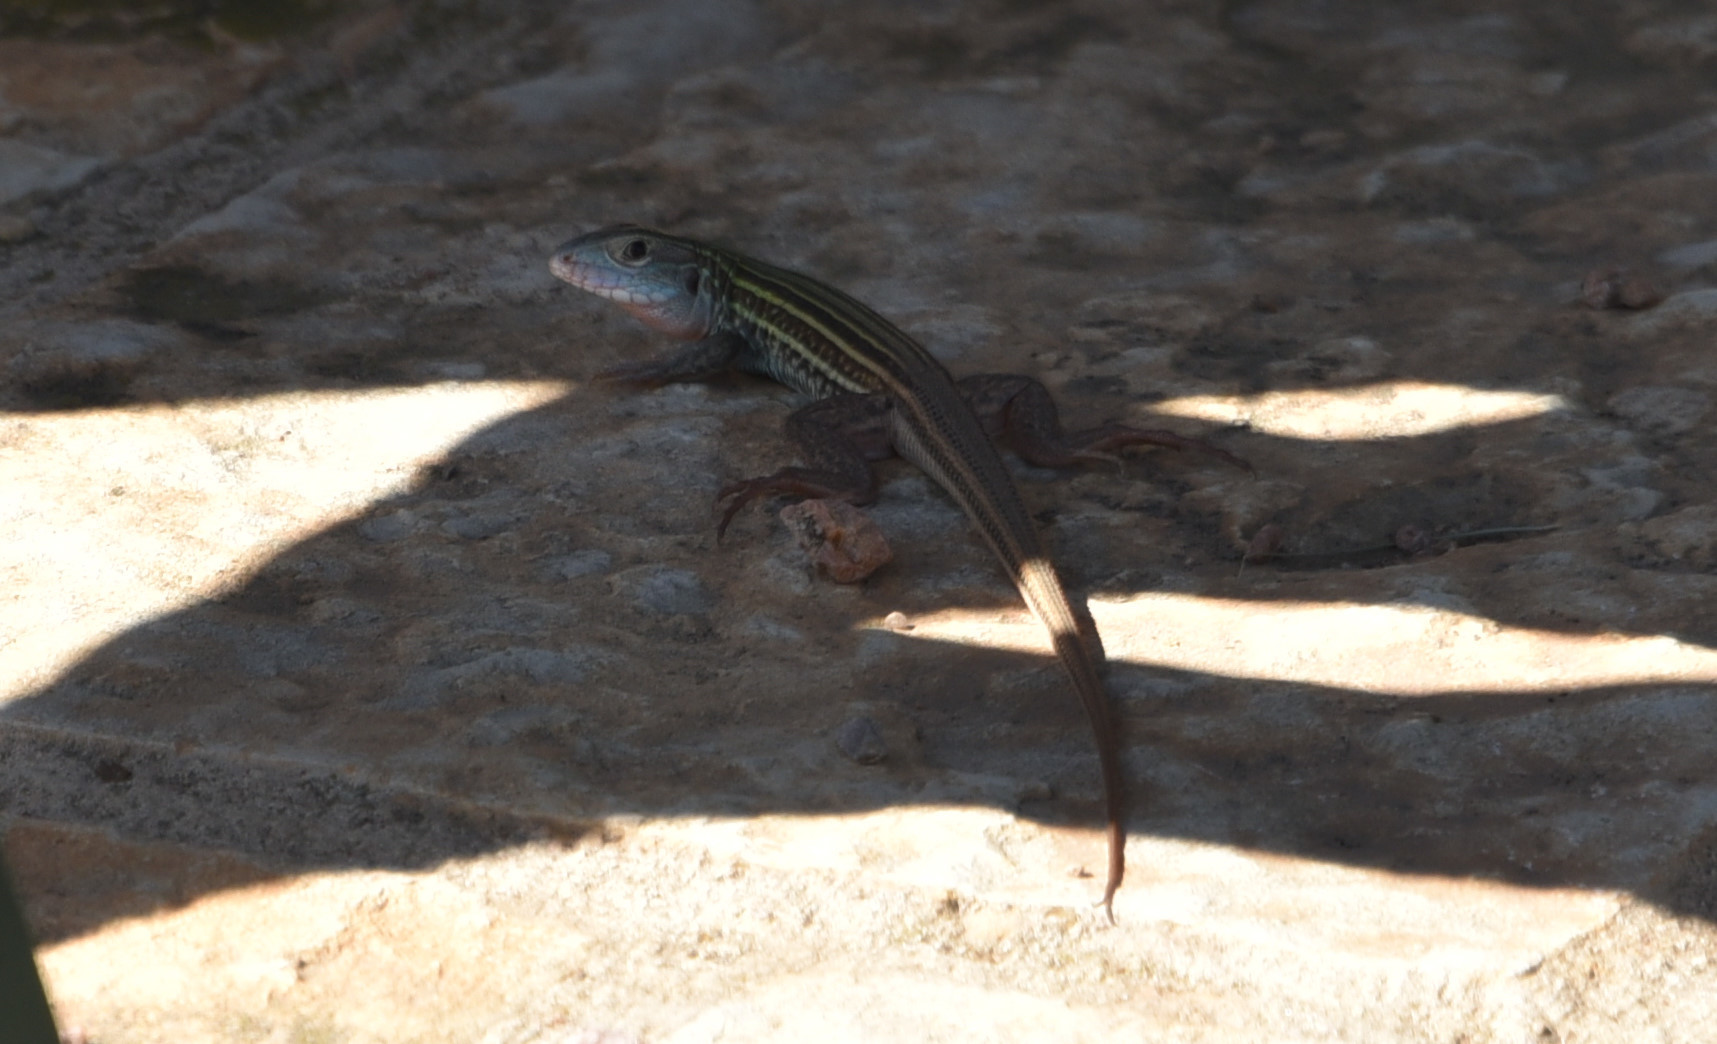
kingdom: Animalia
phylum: Chordata
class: Squamata
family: Teiidae
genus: Aspidoscelis
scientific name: Aspidoscelis gularis
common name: Eastern spotted whiptail
